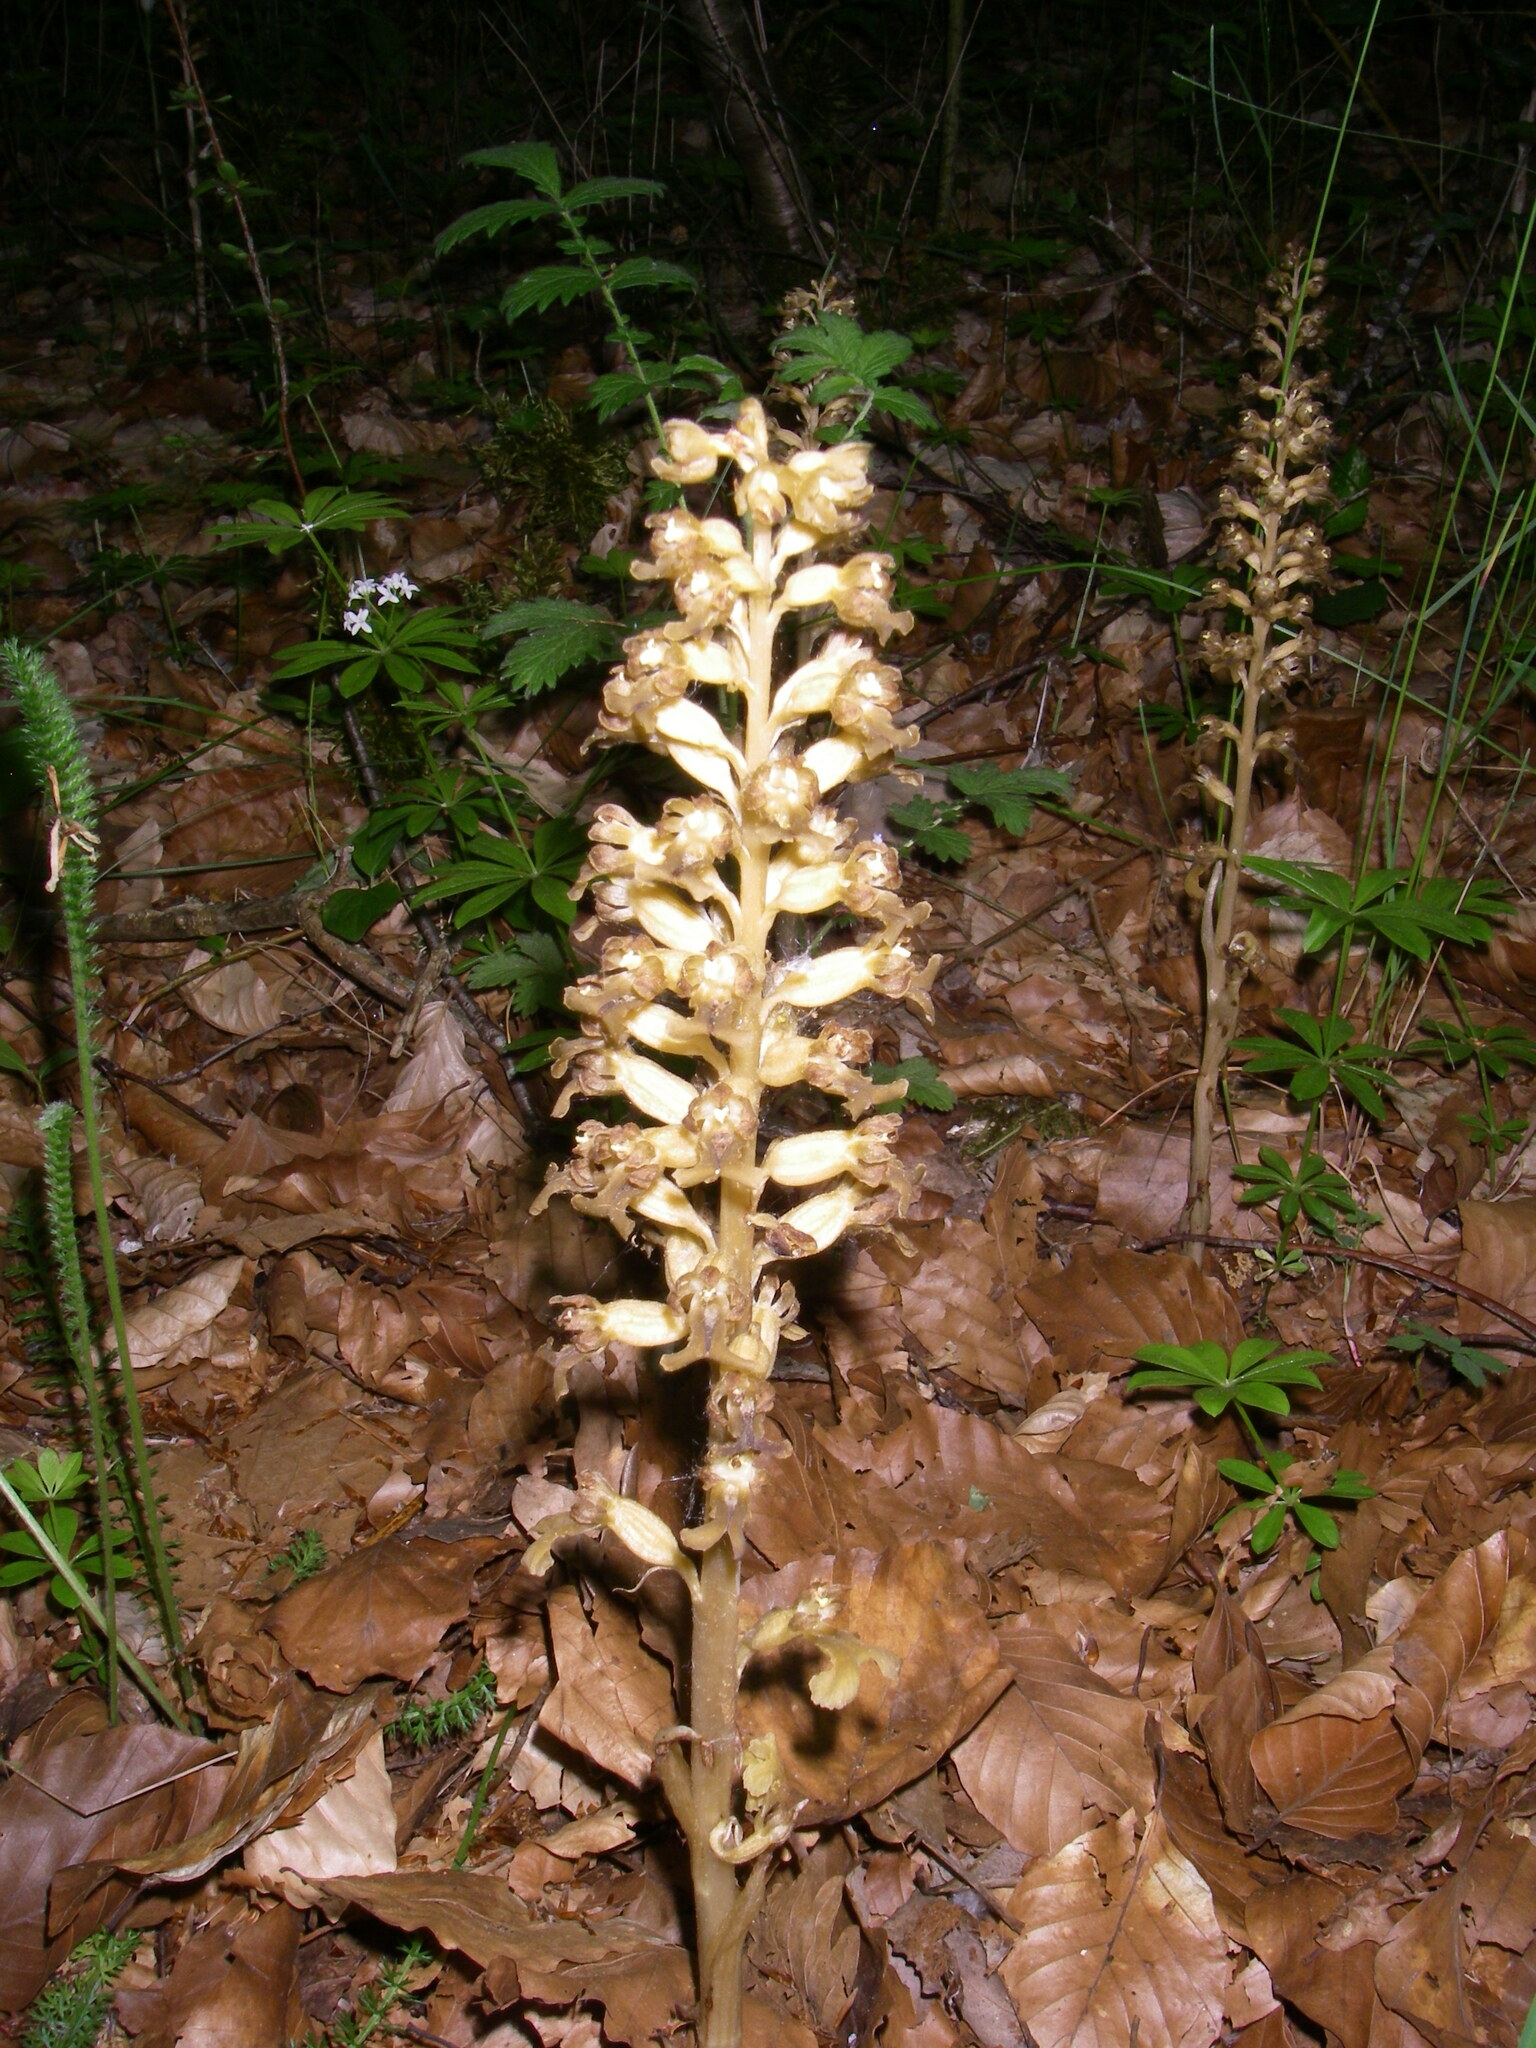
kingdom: Plantae
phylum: Tracheophyta
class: Liliopsida
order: Asparagales
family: Orchidaceae
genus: Neottia
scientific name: Neottia nidus-avis
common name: Bird's-nest orchid
